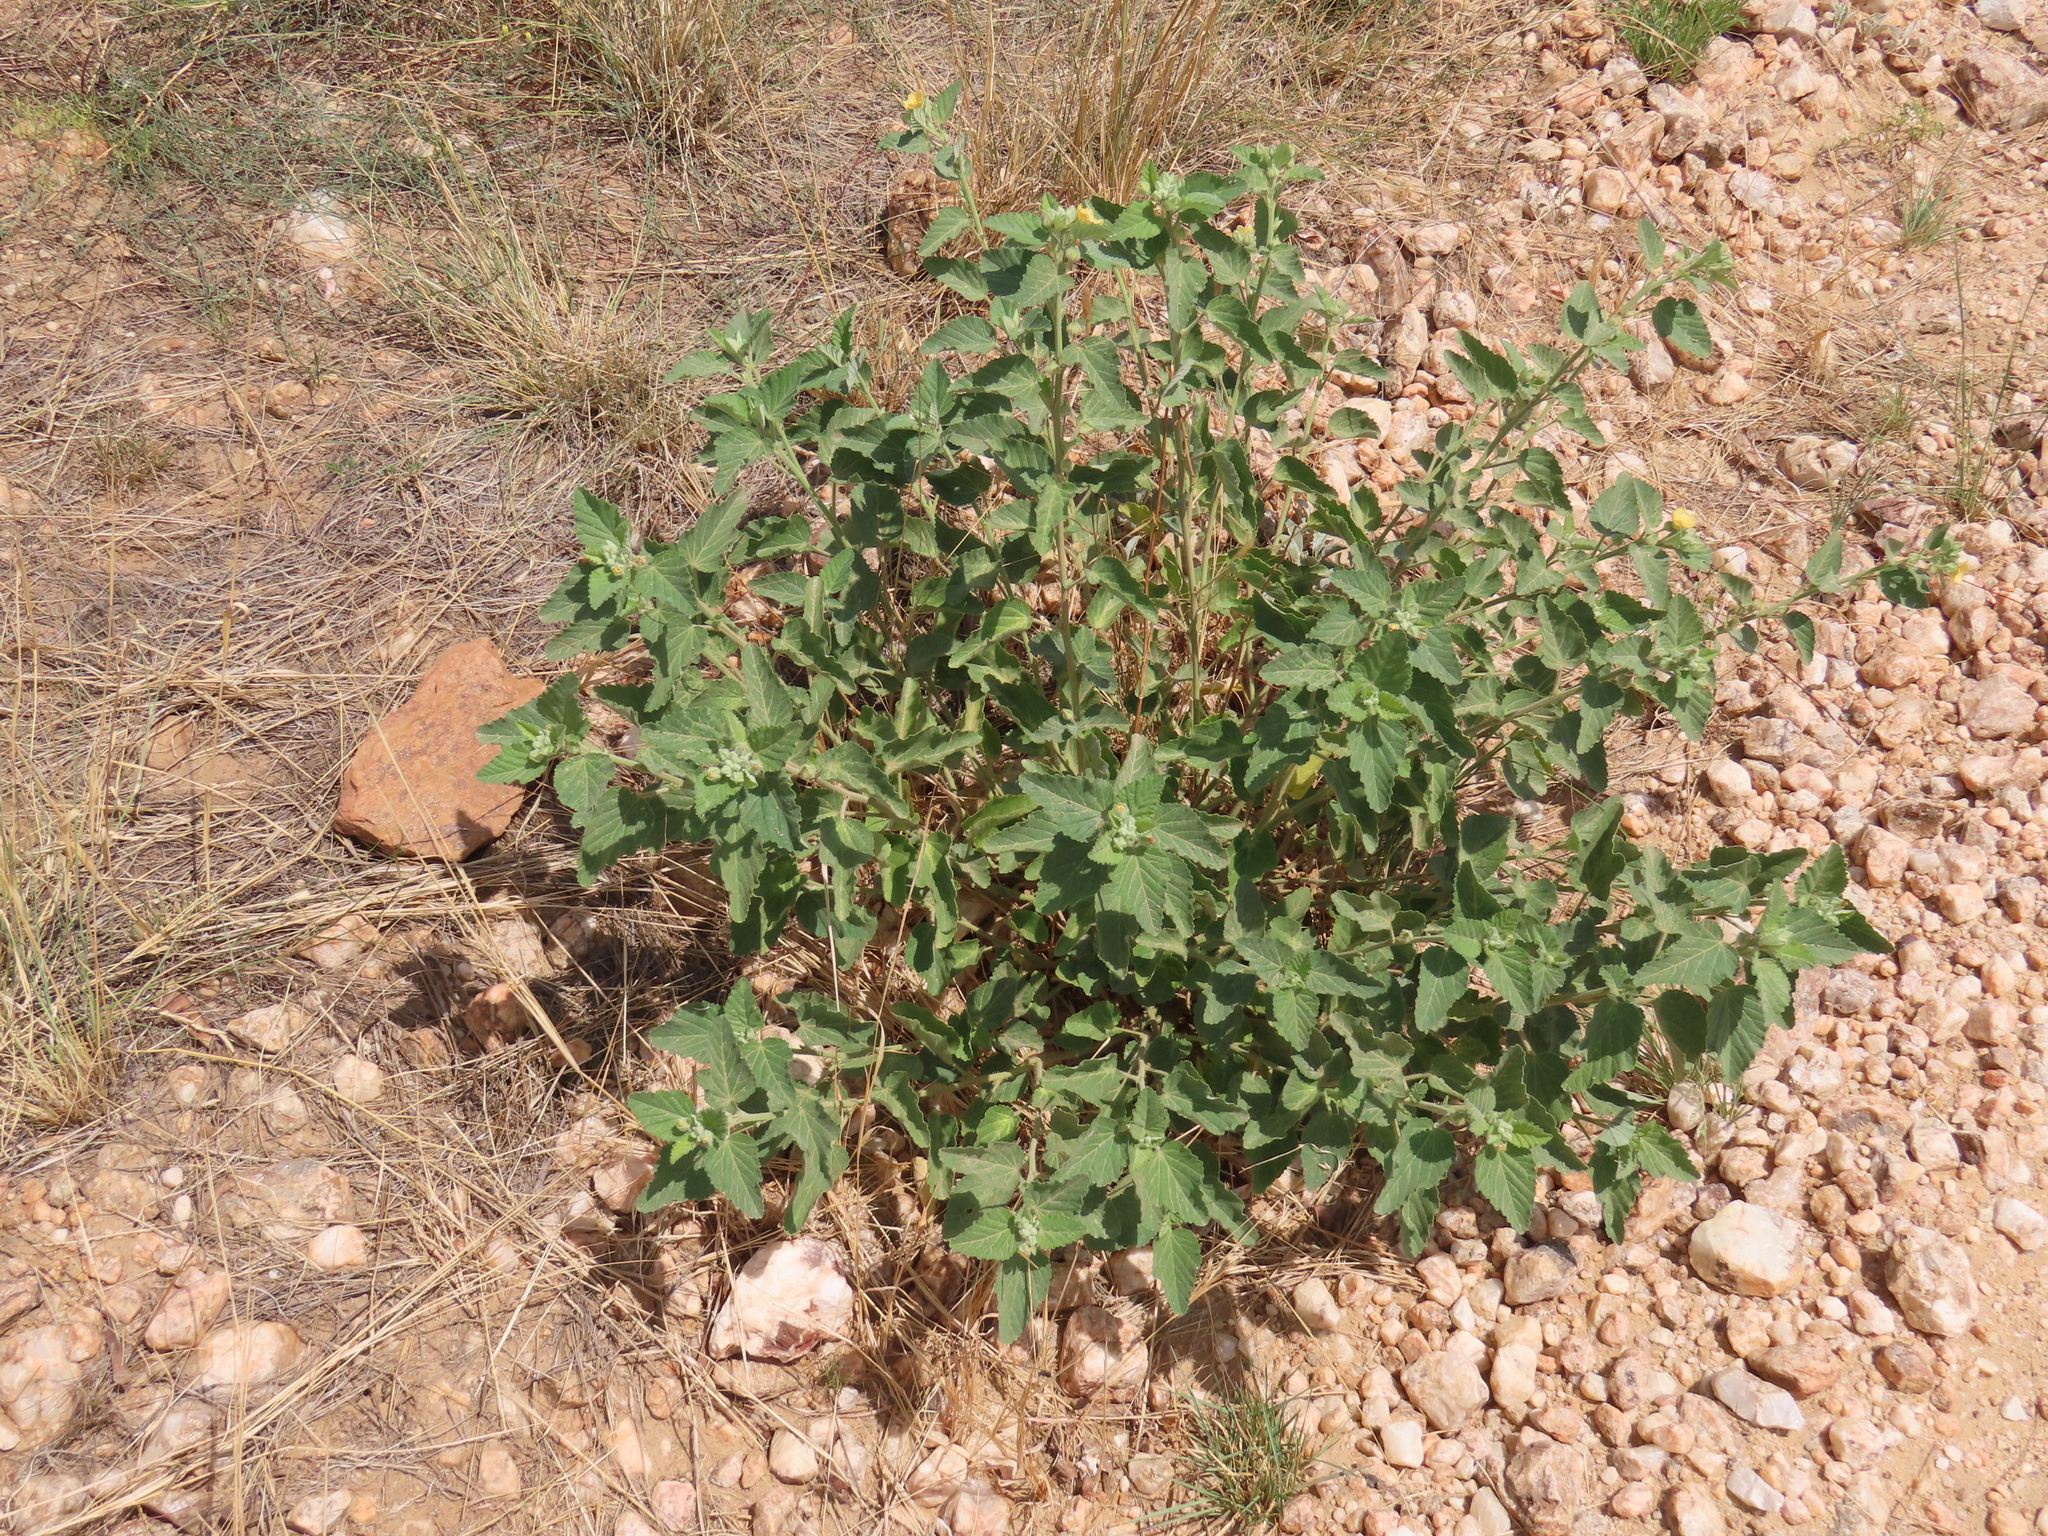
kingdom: Plantae
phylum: Tracheophyta
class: Magnoliopsida
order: Malvales
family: Malvaceae
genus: Sida
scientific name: Sida ovata
